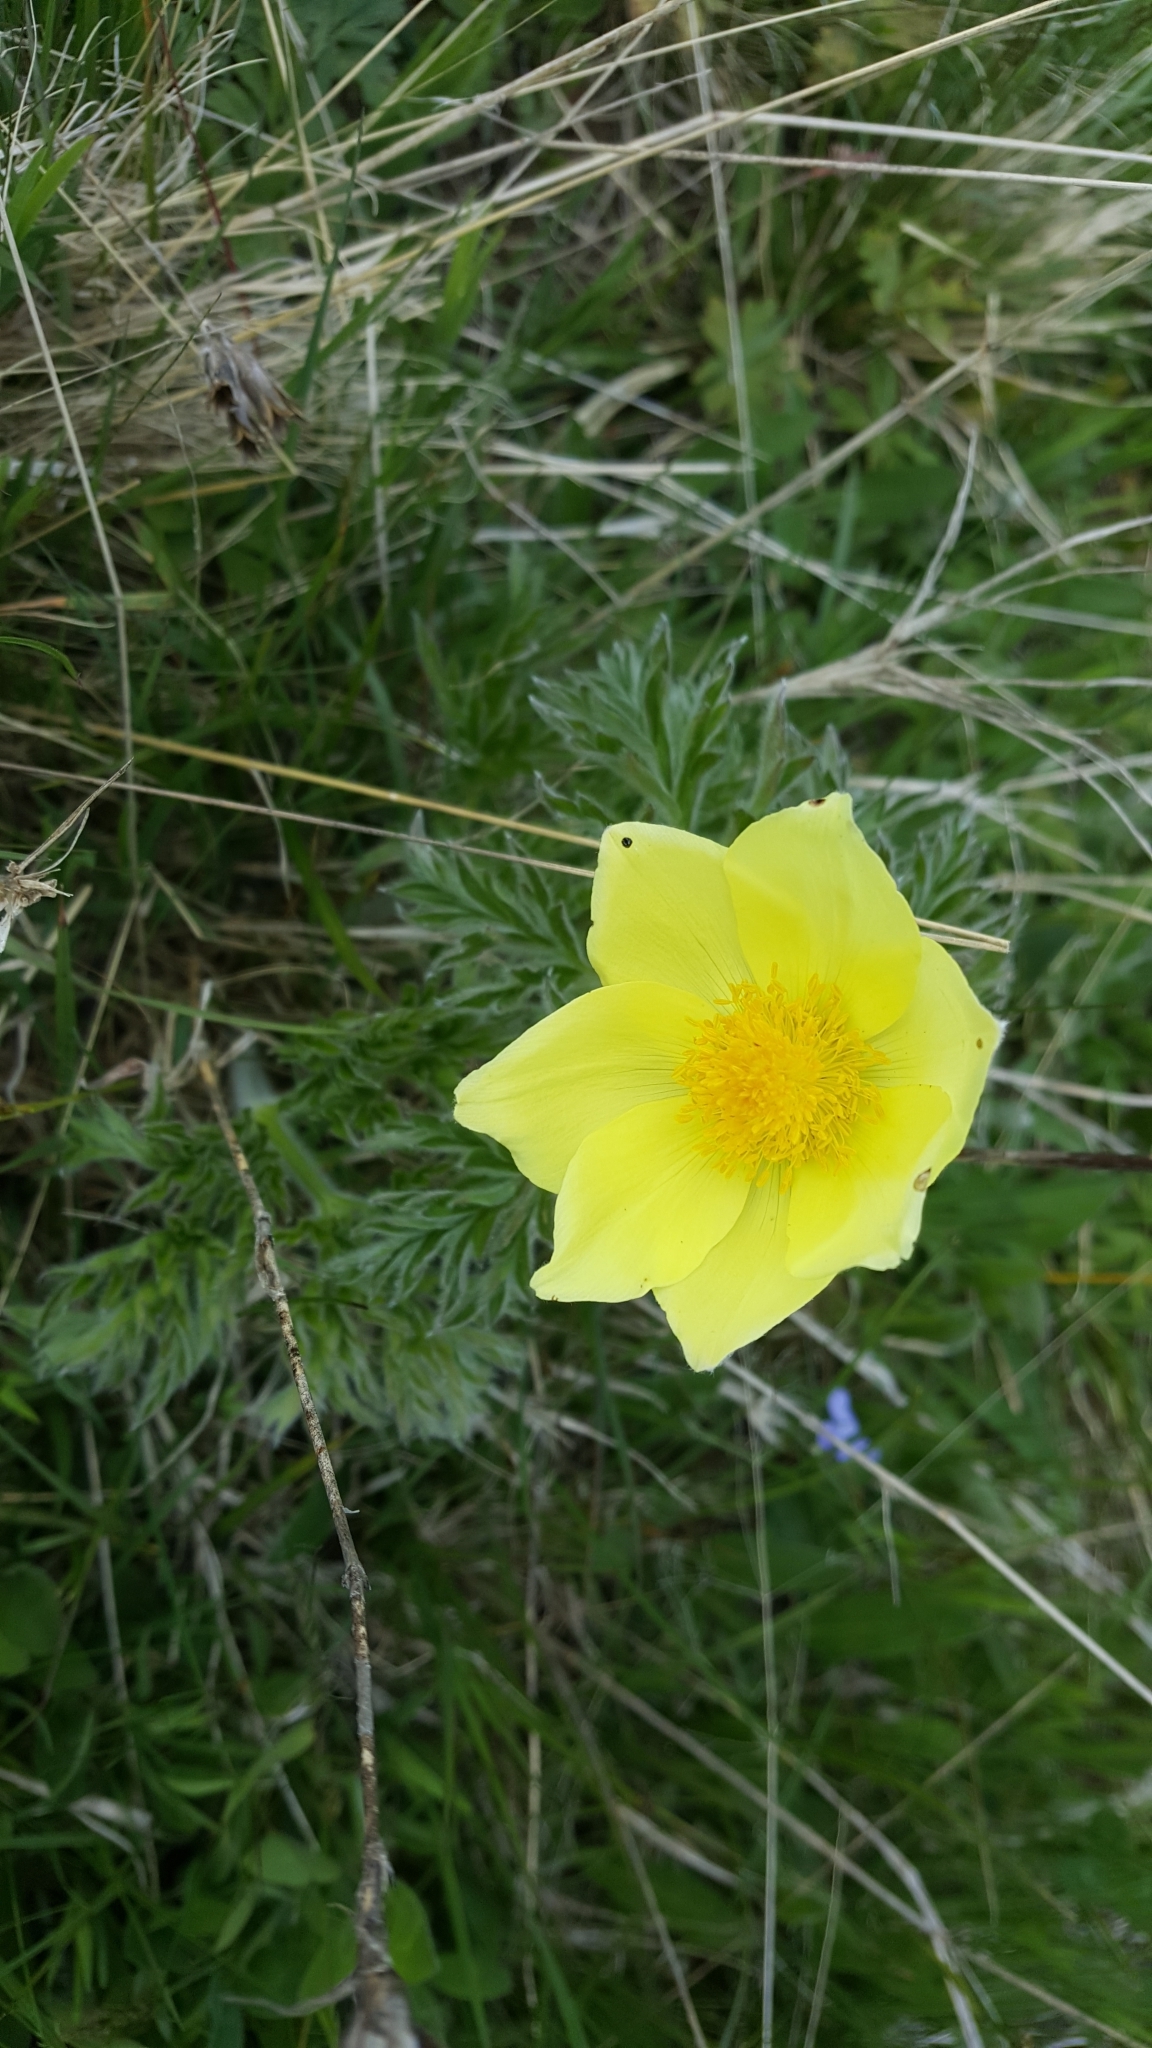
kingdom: Plantae
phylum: Tracheophyta
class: Magnoliopsida
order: Ranunculales
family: Ranunculaceae
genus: Pulsatilla
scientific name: Pulsatilla alpina
